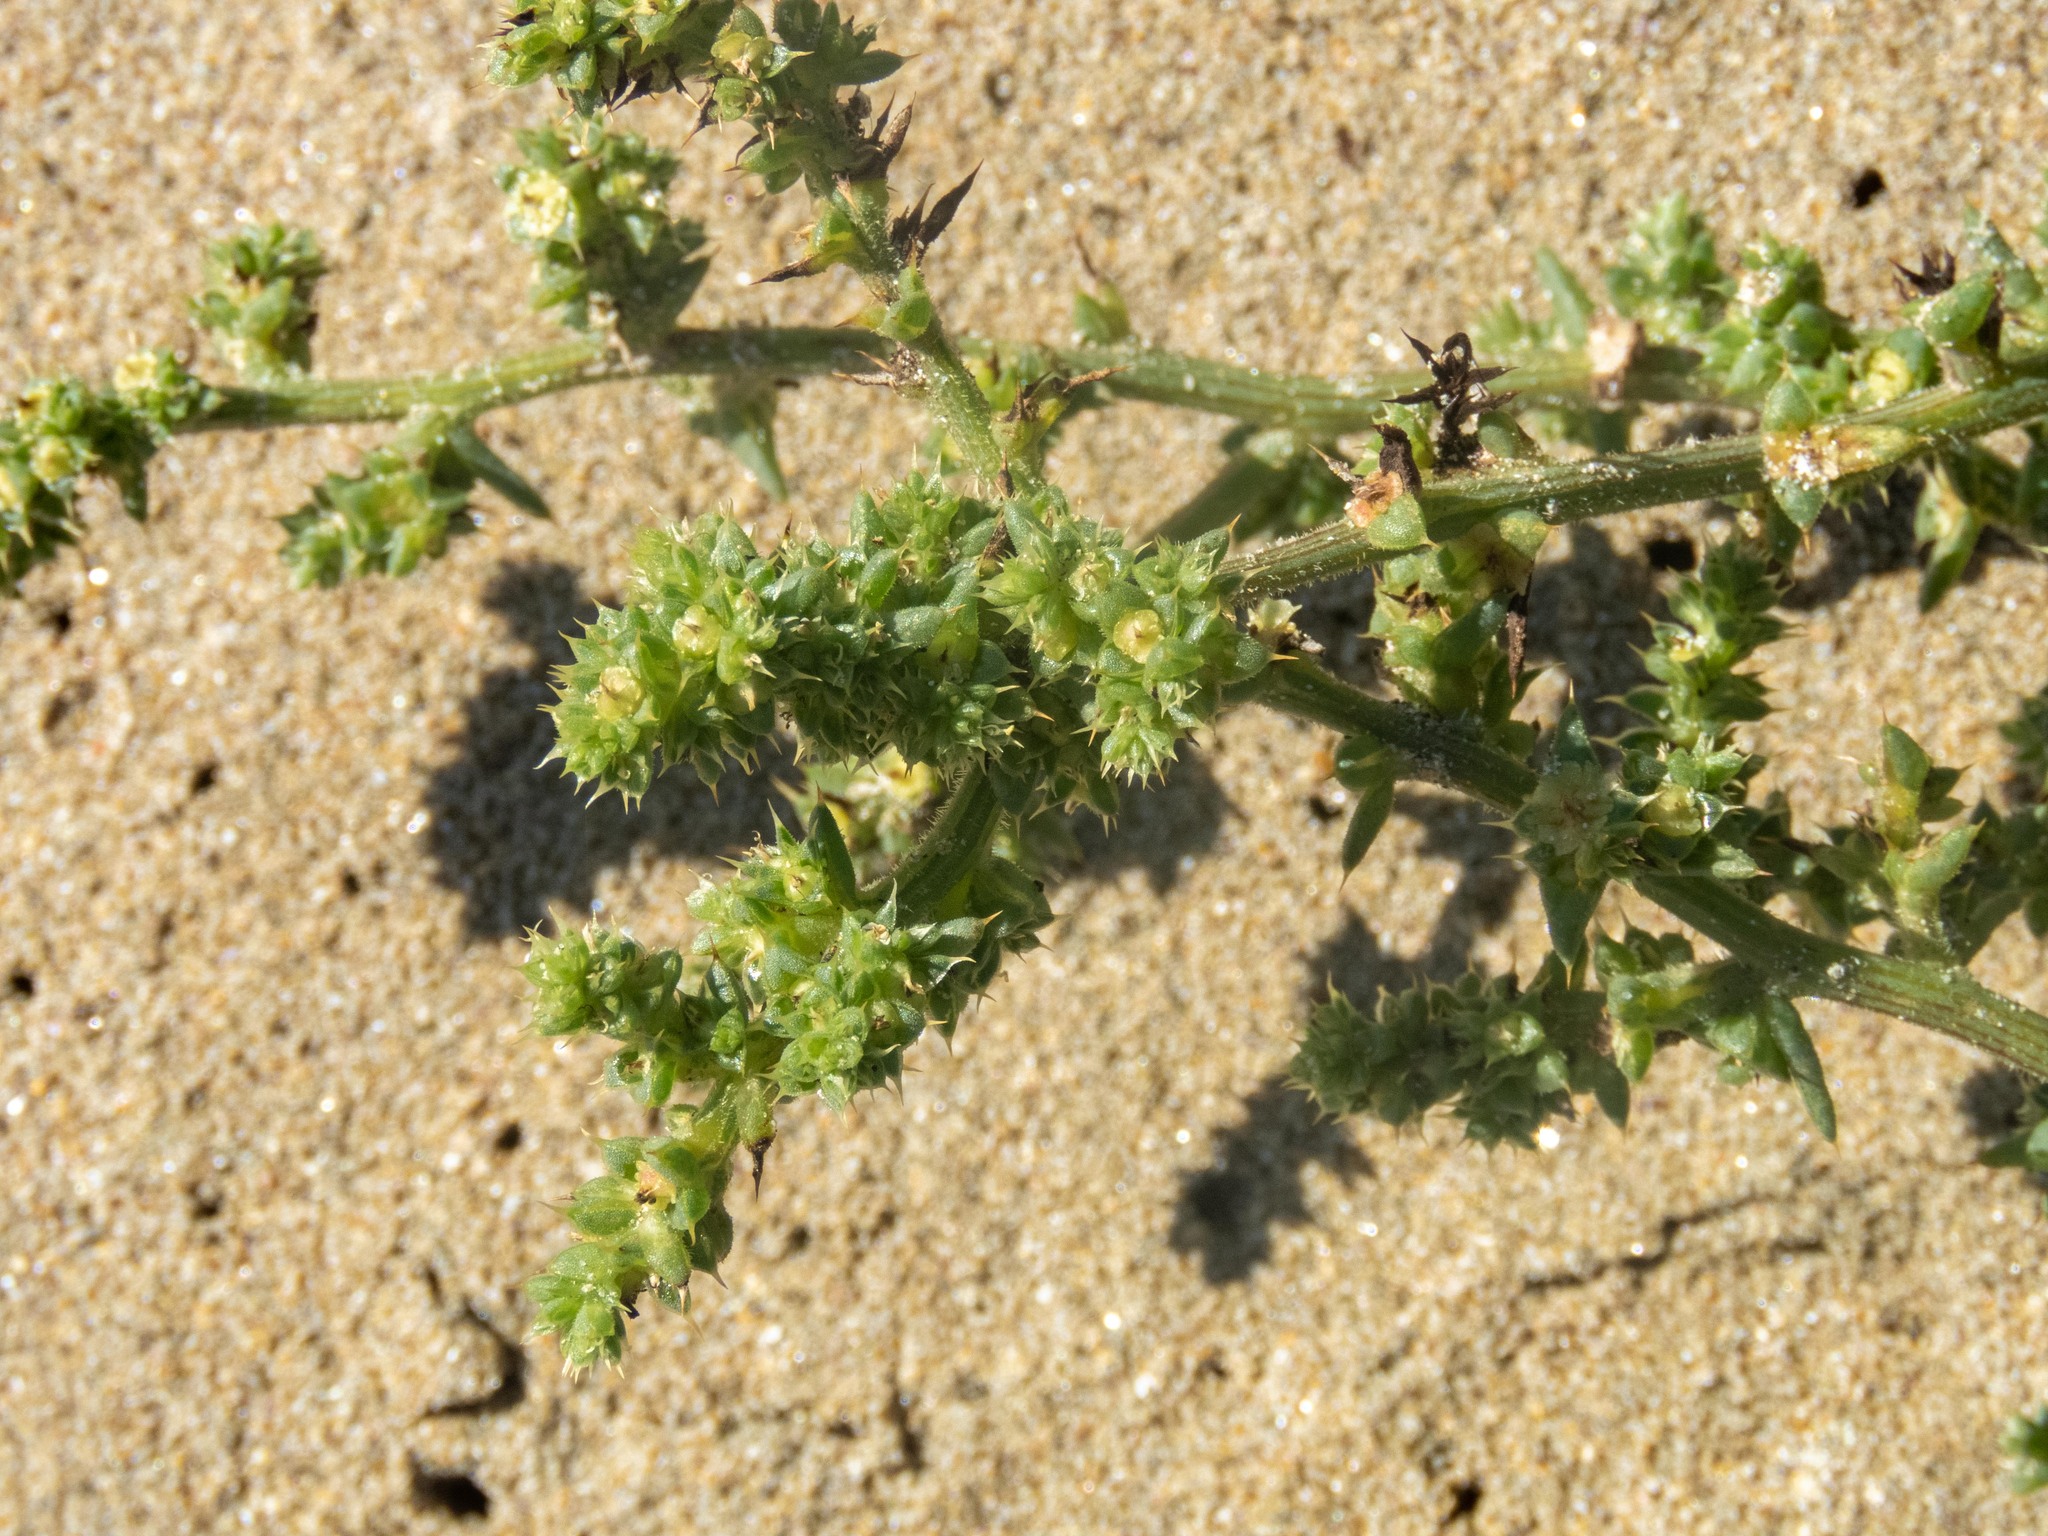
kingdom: Plantae
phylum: Tracheophyta
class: Magnoliopsida
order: Caryophyllales
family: Amaranthaceae
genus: Salsola
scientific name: Salsola kali
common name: Saltwort
